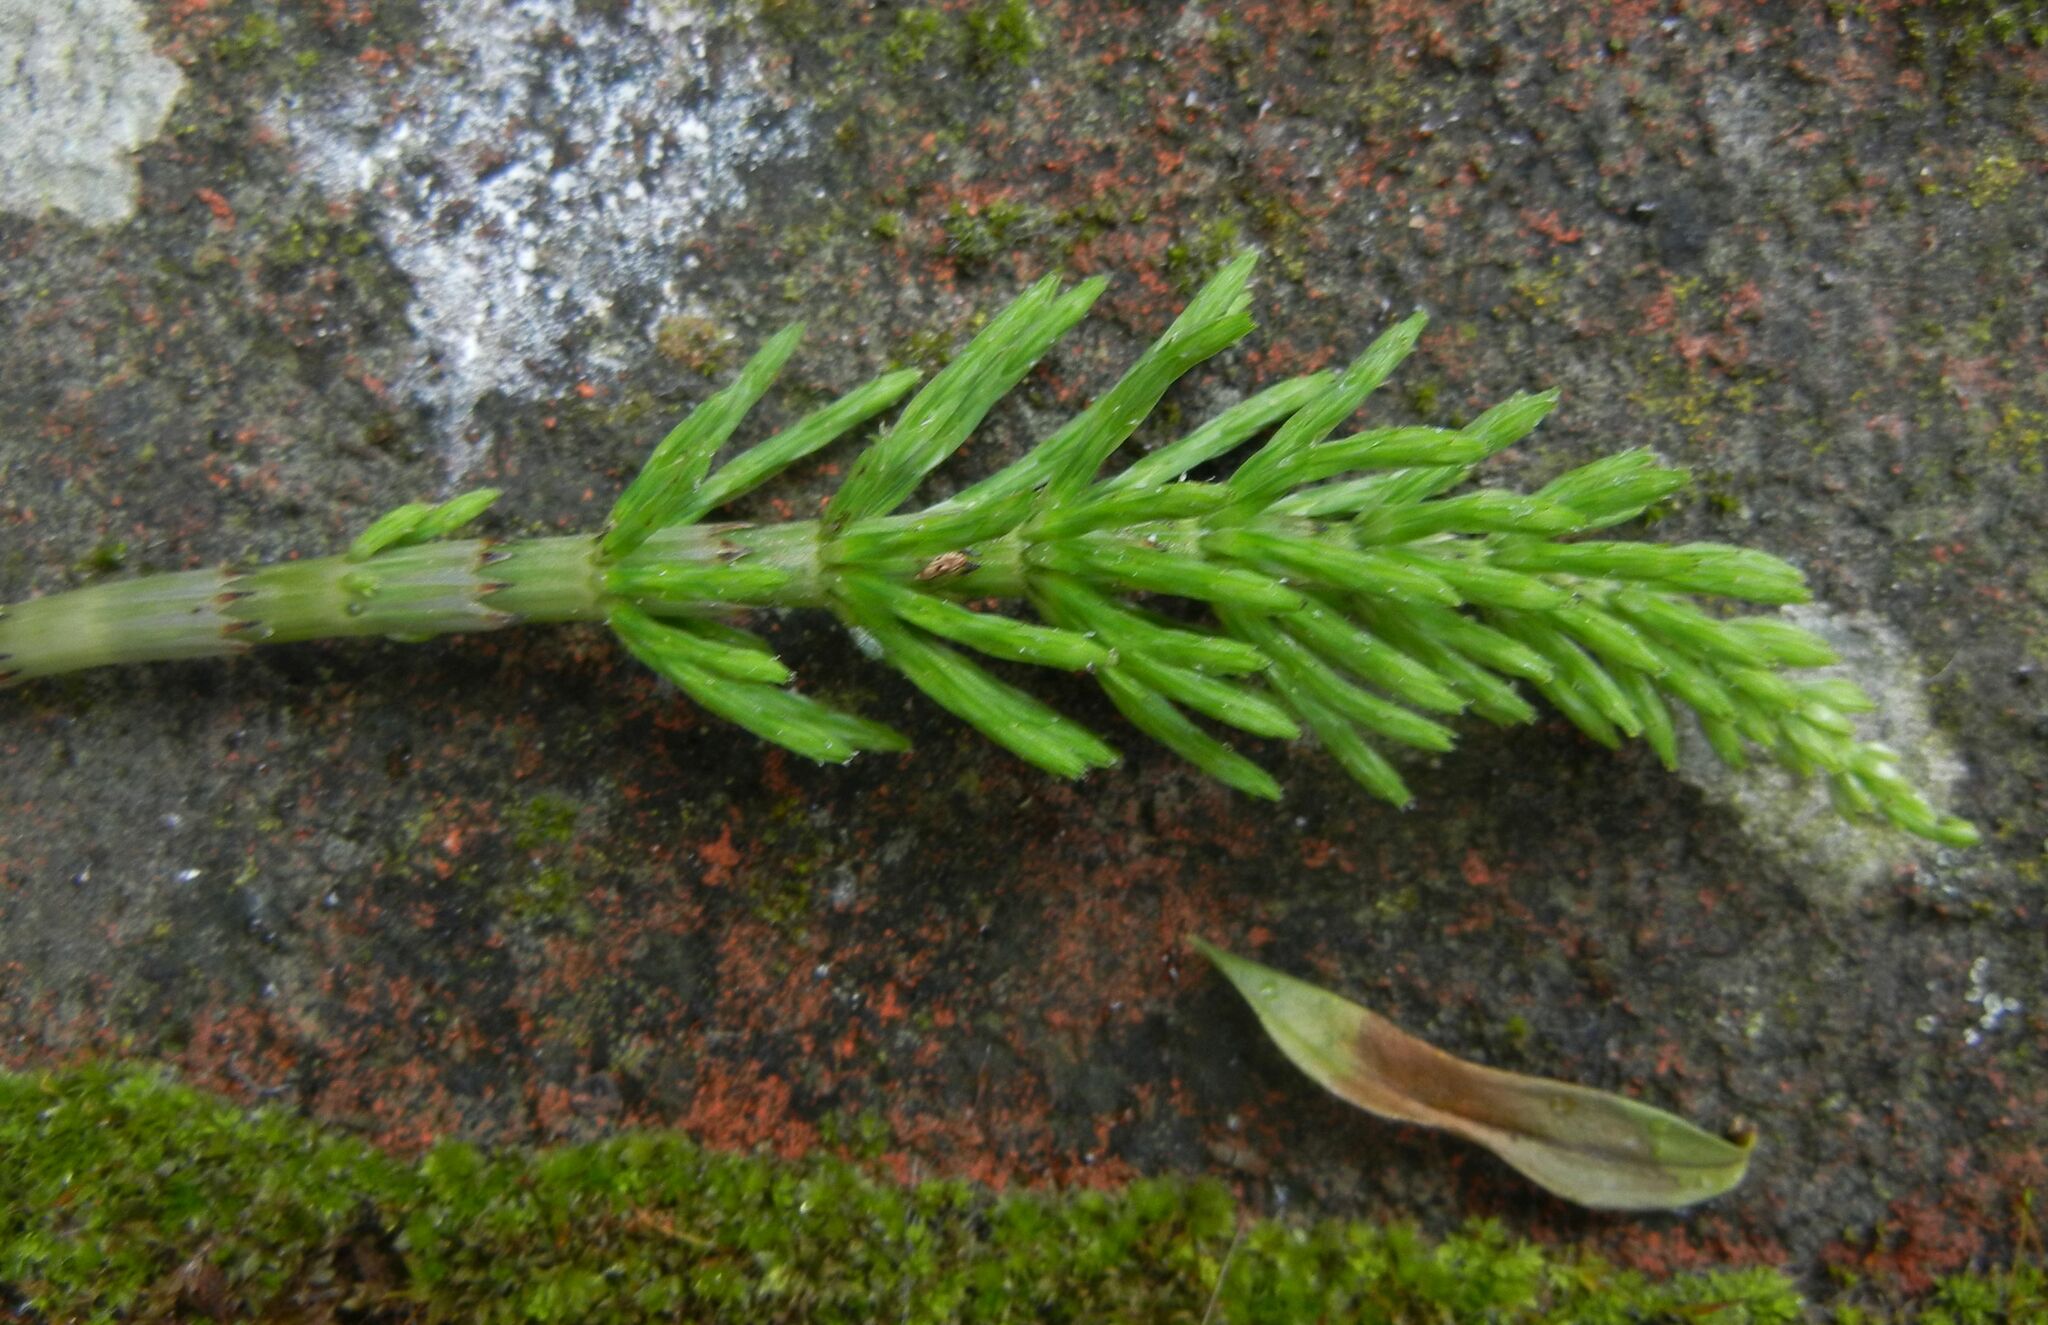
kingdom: Plantae
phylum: Tracheophyta
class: Polypodiopsida
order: Equisetales
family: Equisetaceae
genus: Equisetum
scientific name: Equisetum arvense
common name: Field horsetail
